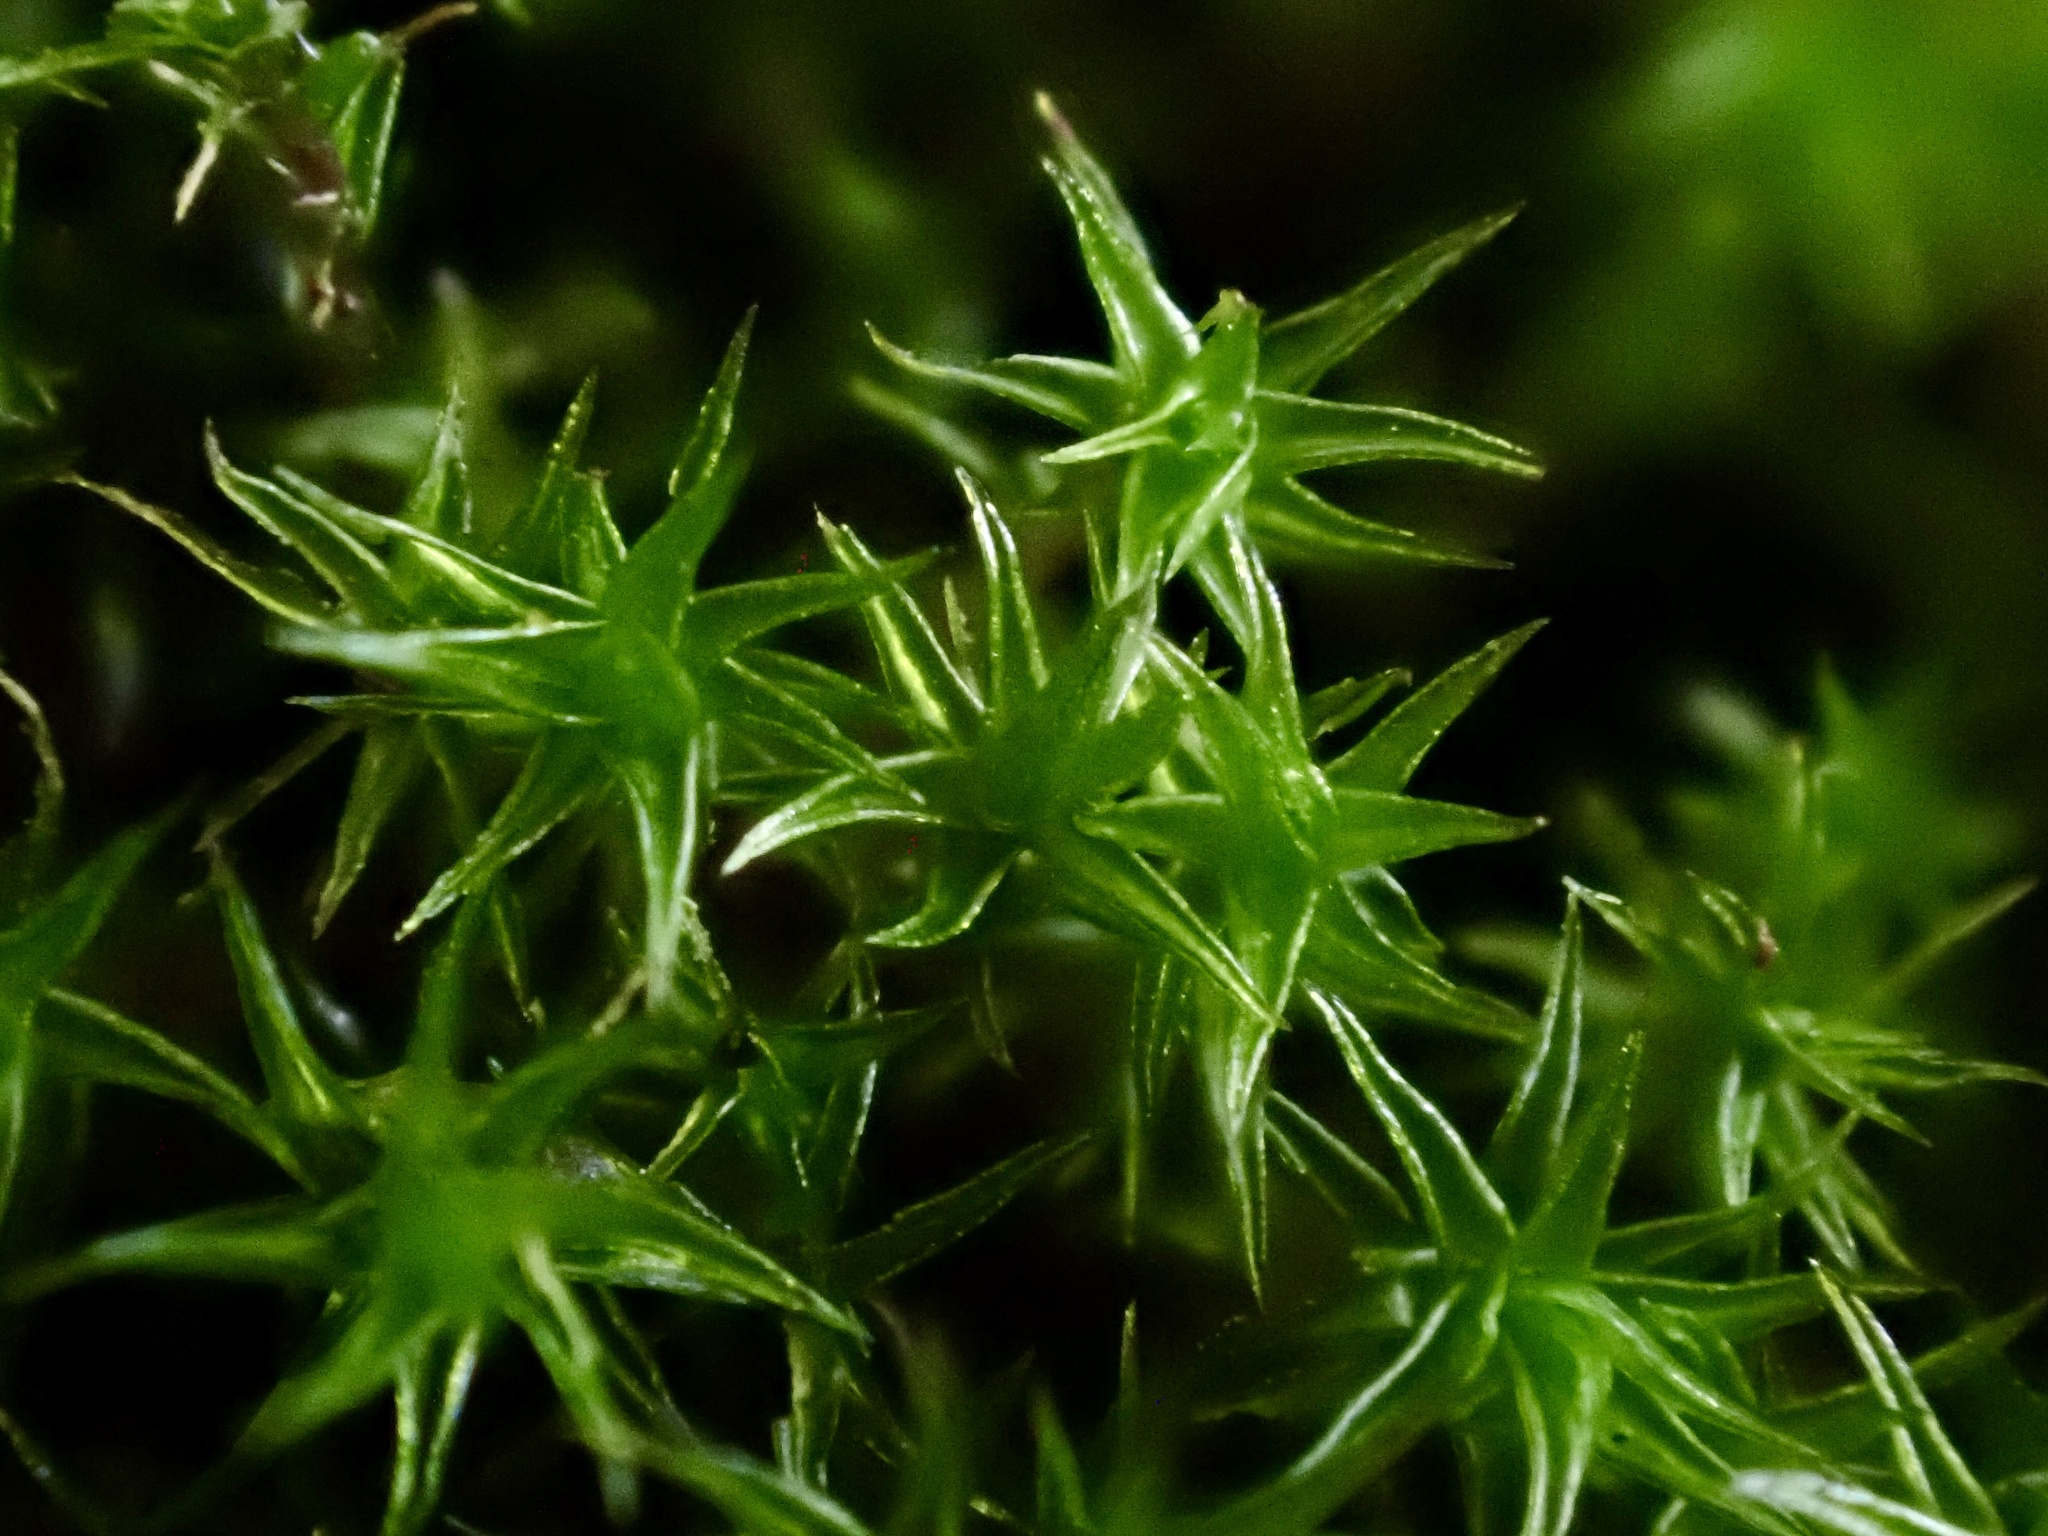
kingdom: Plantae
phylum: Bryophyta
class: Bryopsida
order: Dicranales
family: Ditrichaceae
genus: Ceratodon
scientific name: Ceratodon purpureus
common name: Redshank
